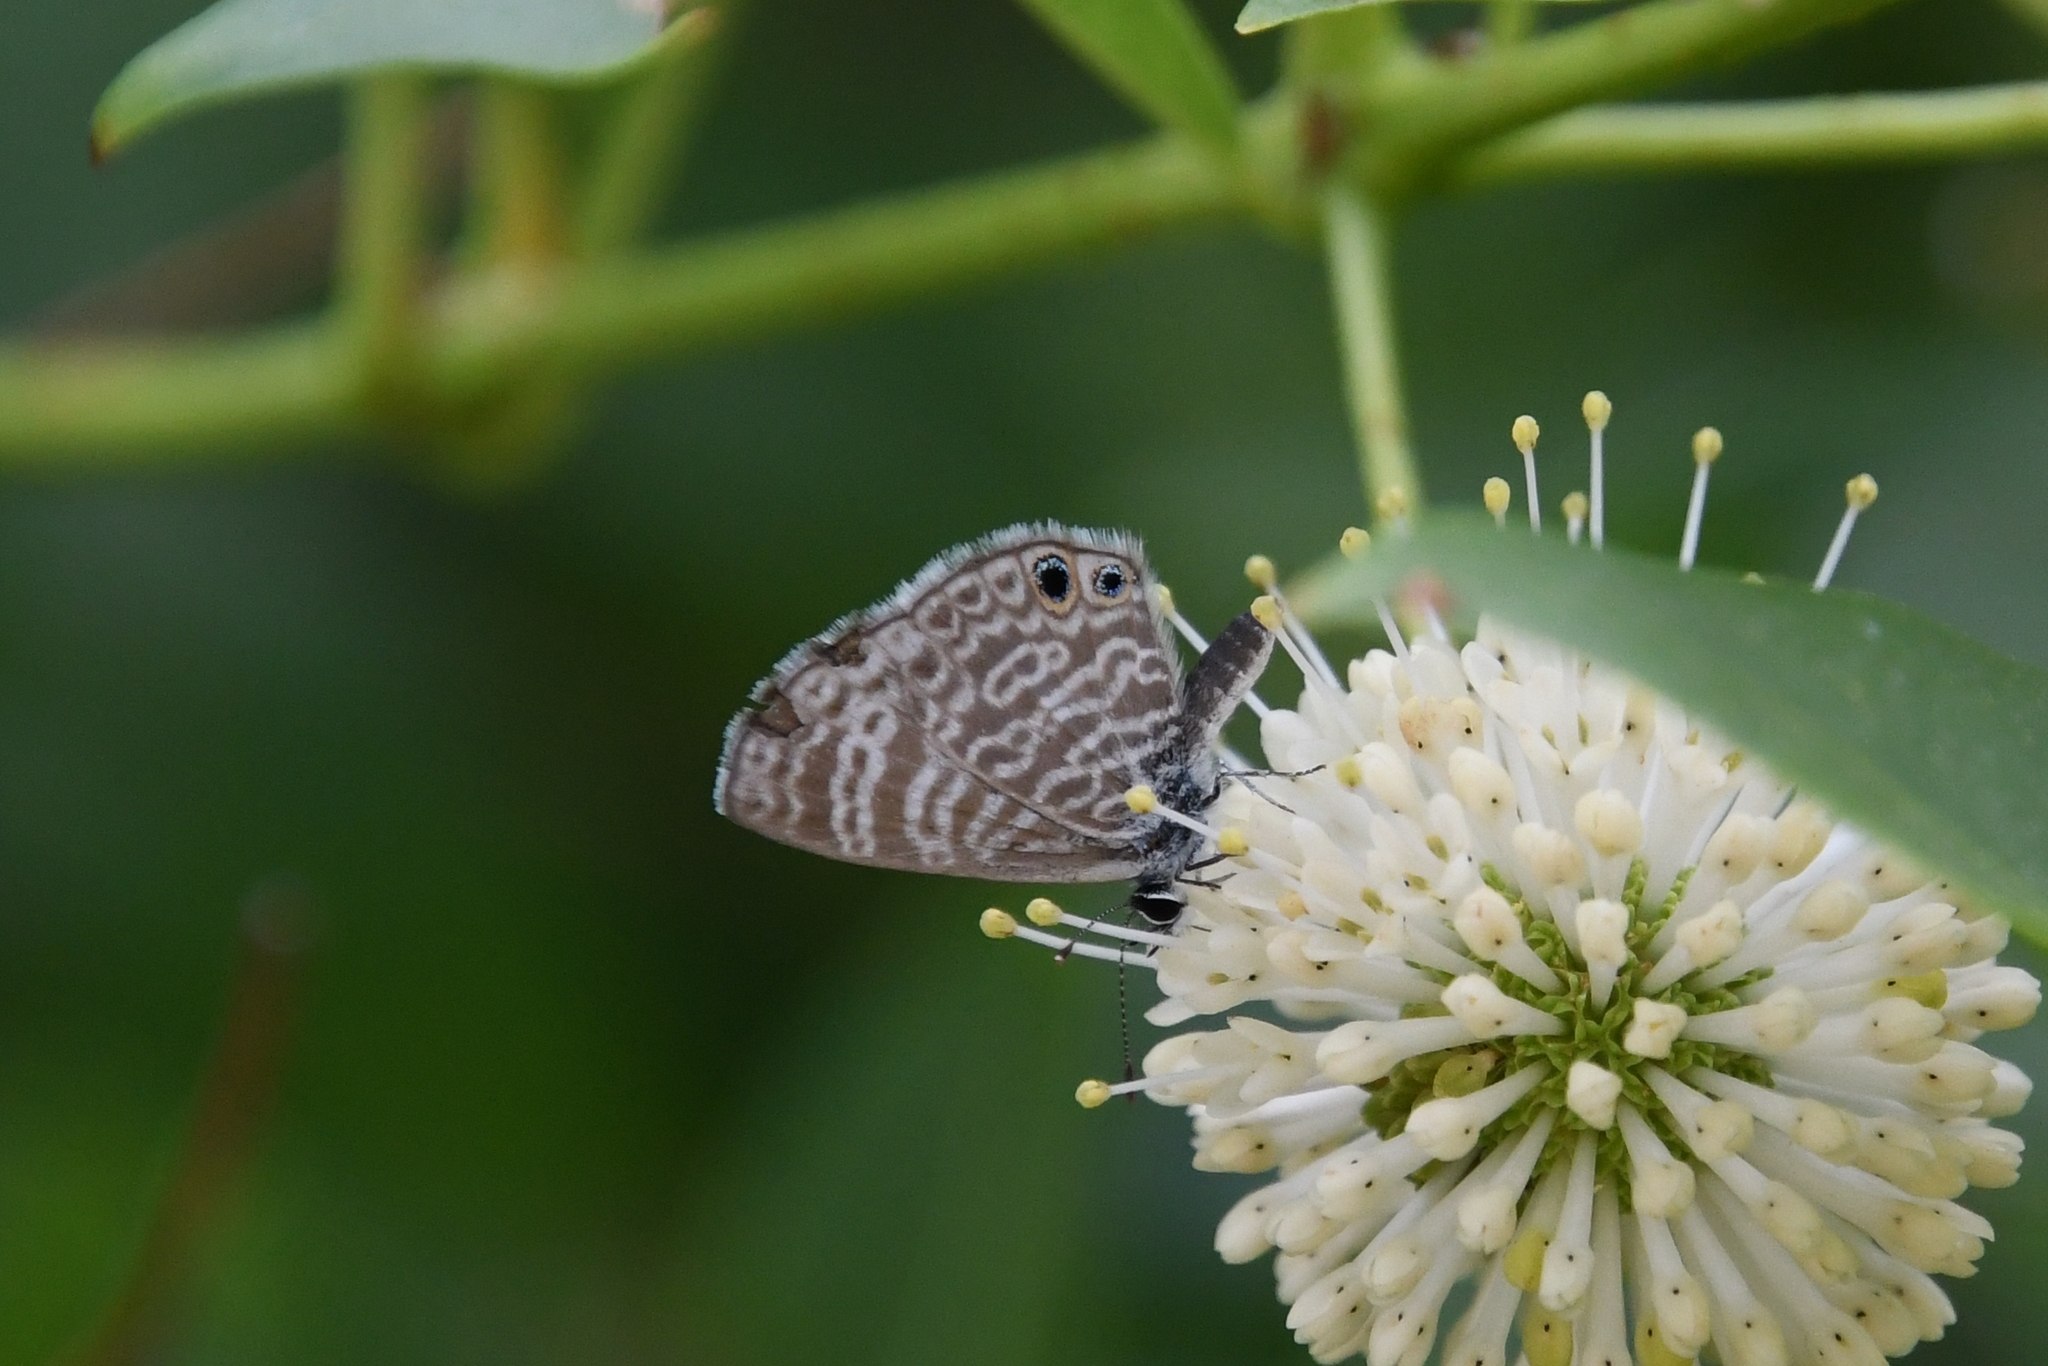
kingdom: Animalia
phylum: Arthropoda
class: Insecta
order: Lepidoptera
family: Lycaenidae
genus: Leptotes
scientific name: Leptotes marina
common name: Marine blue
